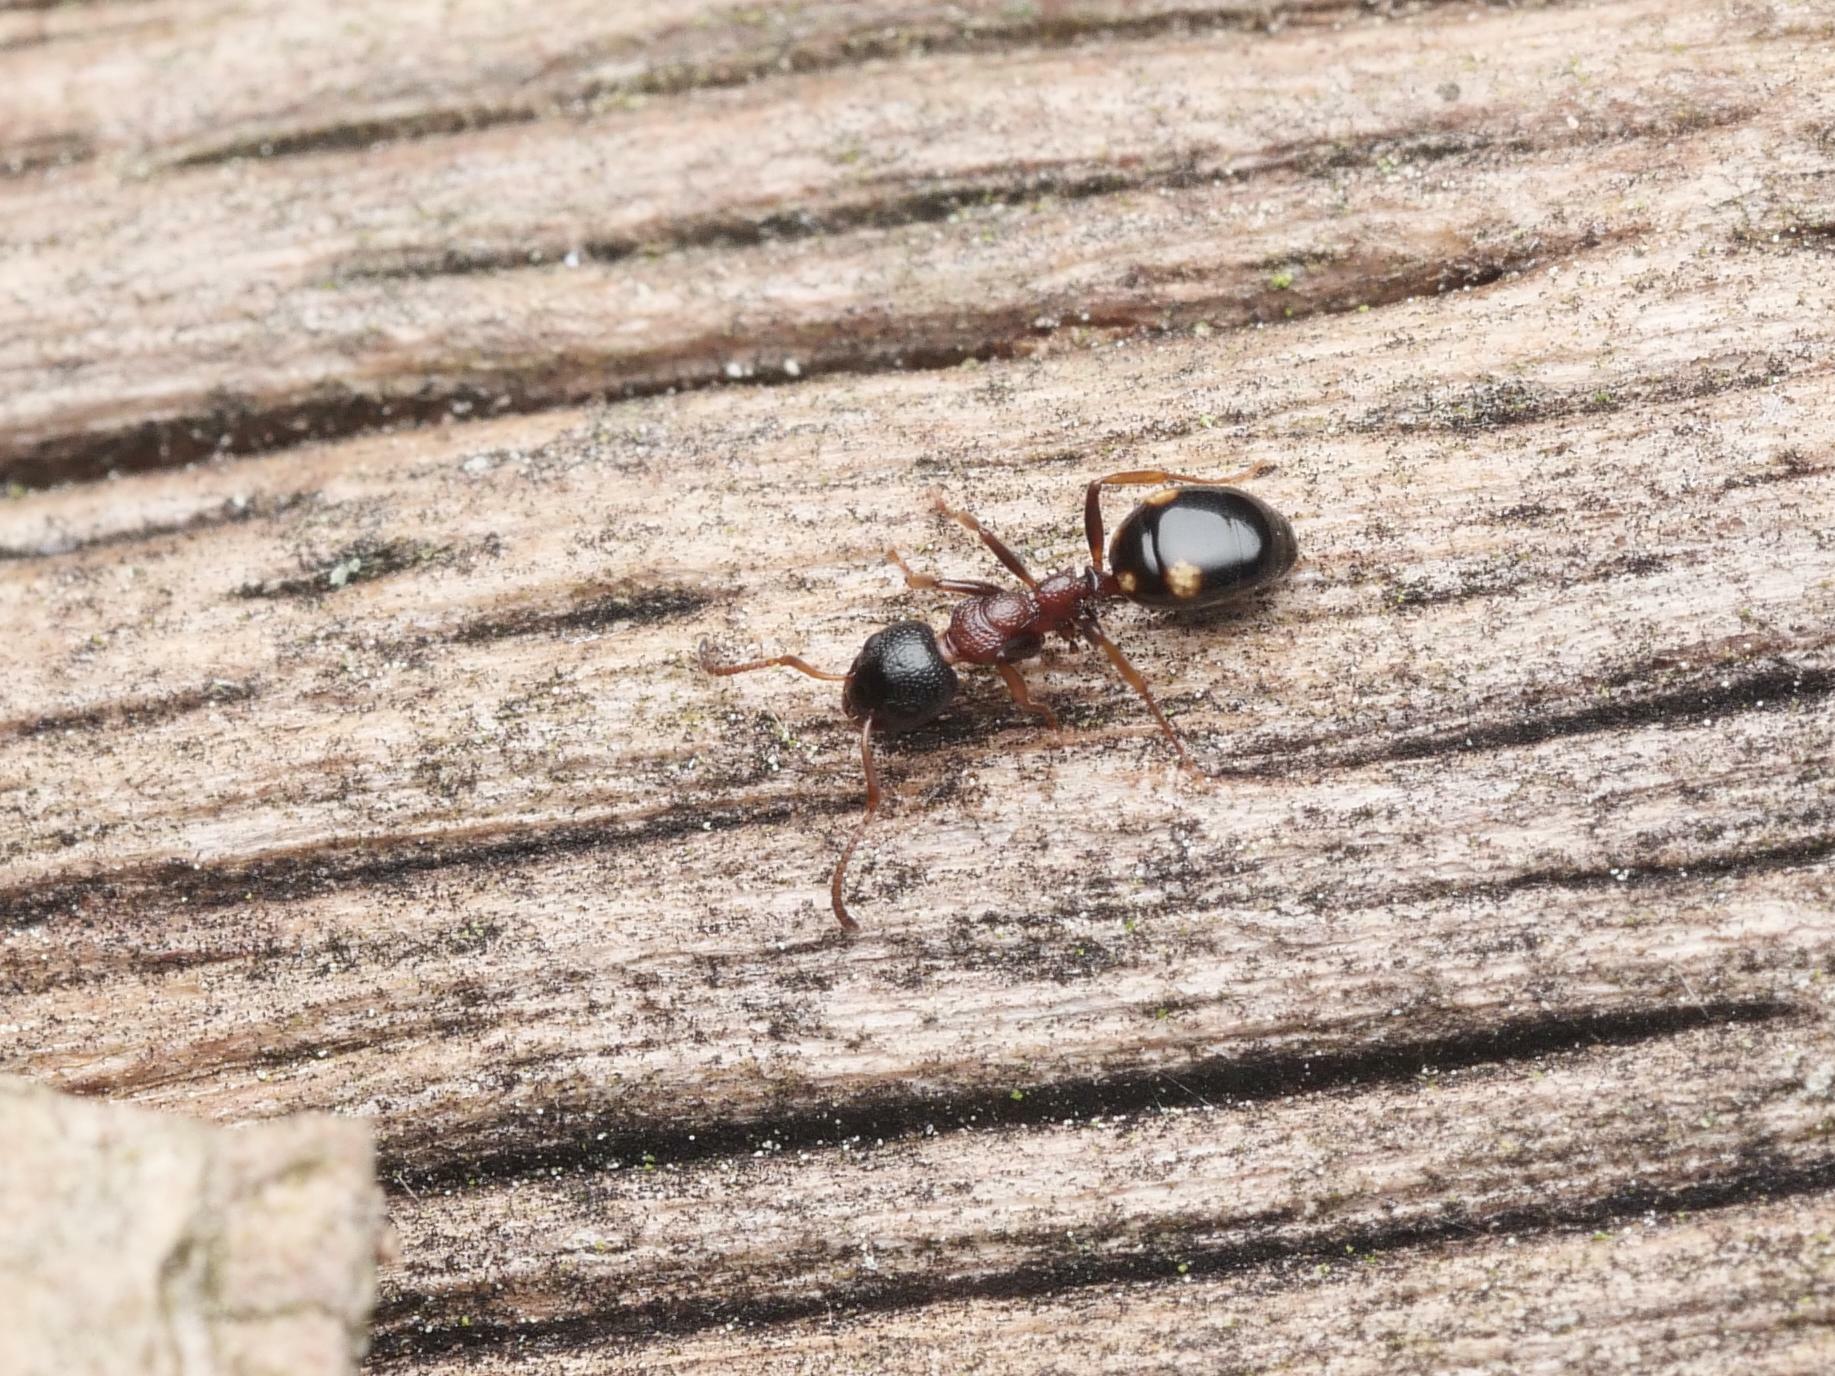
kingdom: Animalia
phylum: Arthropoda
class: Insecta
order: Hymenoptera
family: Formicidae
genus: Dolichoderus
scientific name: Dolichoderus quadripunctatus
